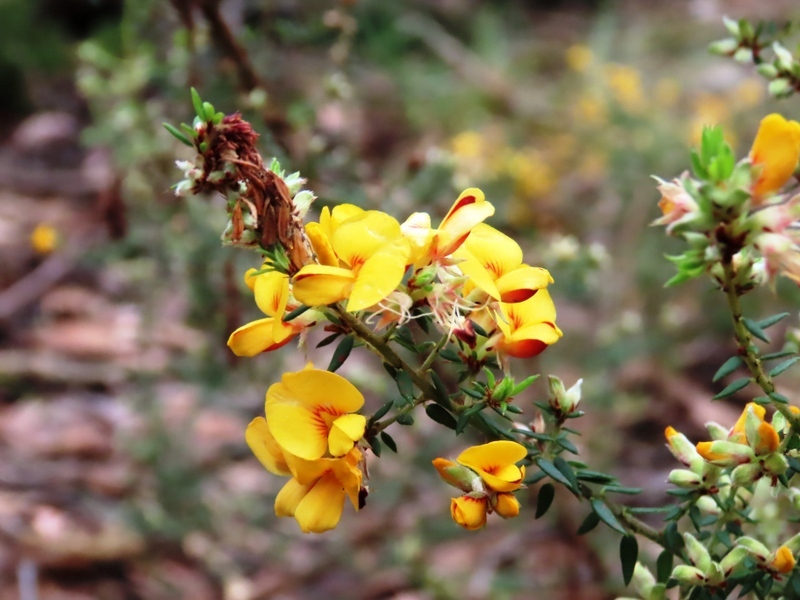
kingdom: Plantae
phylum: Tracheophyta
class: Magnoliopsida
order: Fabales
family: Fabaceae
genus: Pultenaea
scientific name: Pultenaea gunnii
